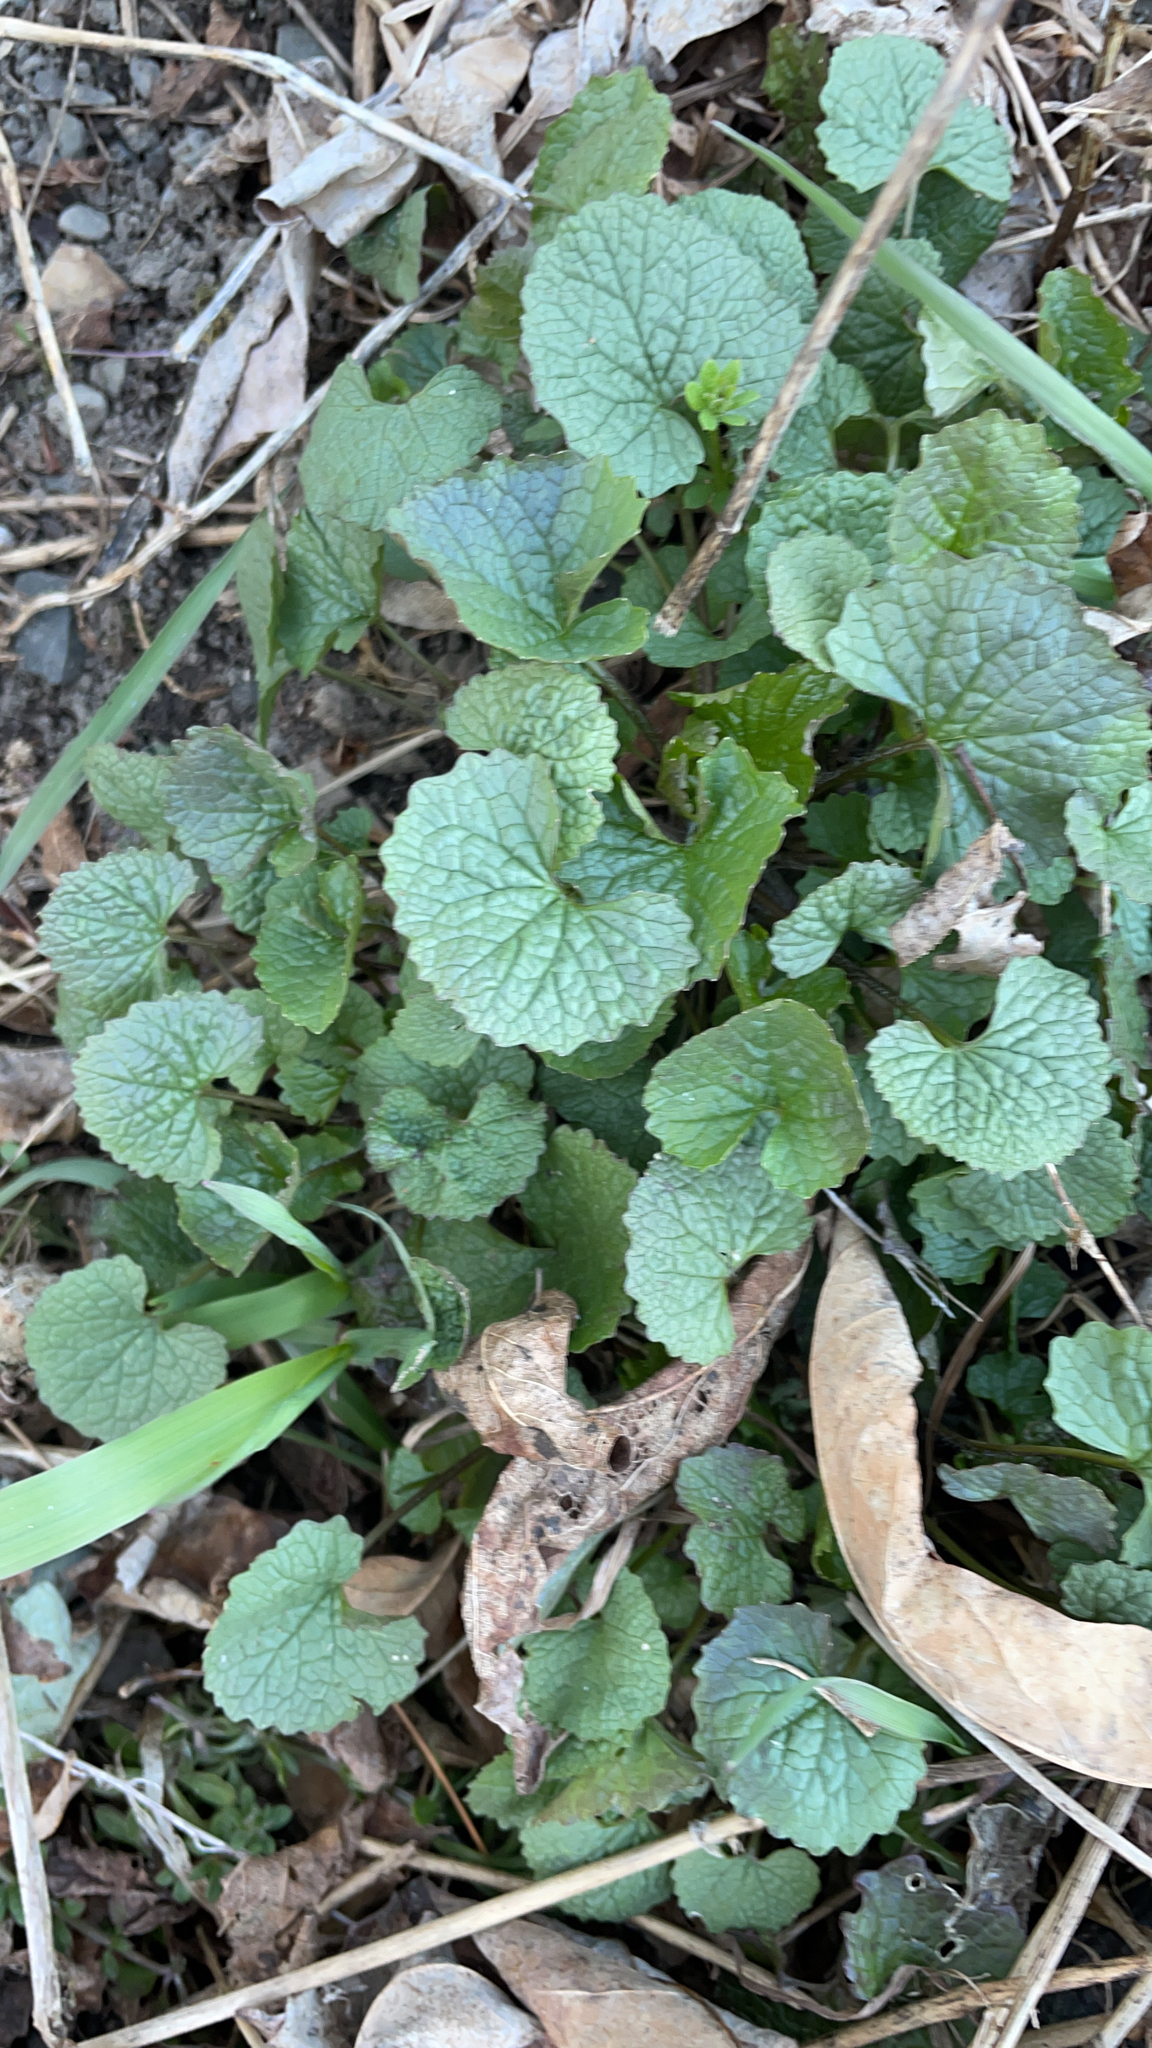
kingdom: Plantae
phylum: Tracheophyta
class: Magnoliopsida
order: Brassicales
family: Brassicaceae
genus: Alliaria
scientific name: Alliaria petiolata
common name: Garlic mustard
